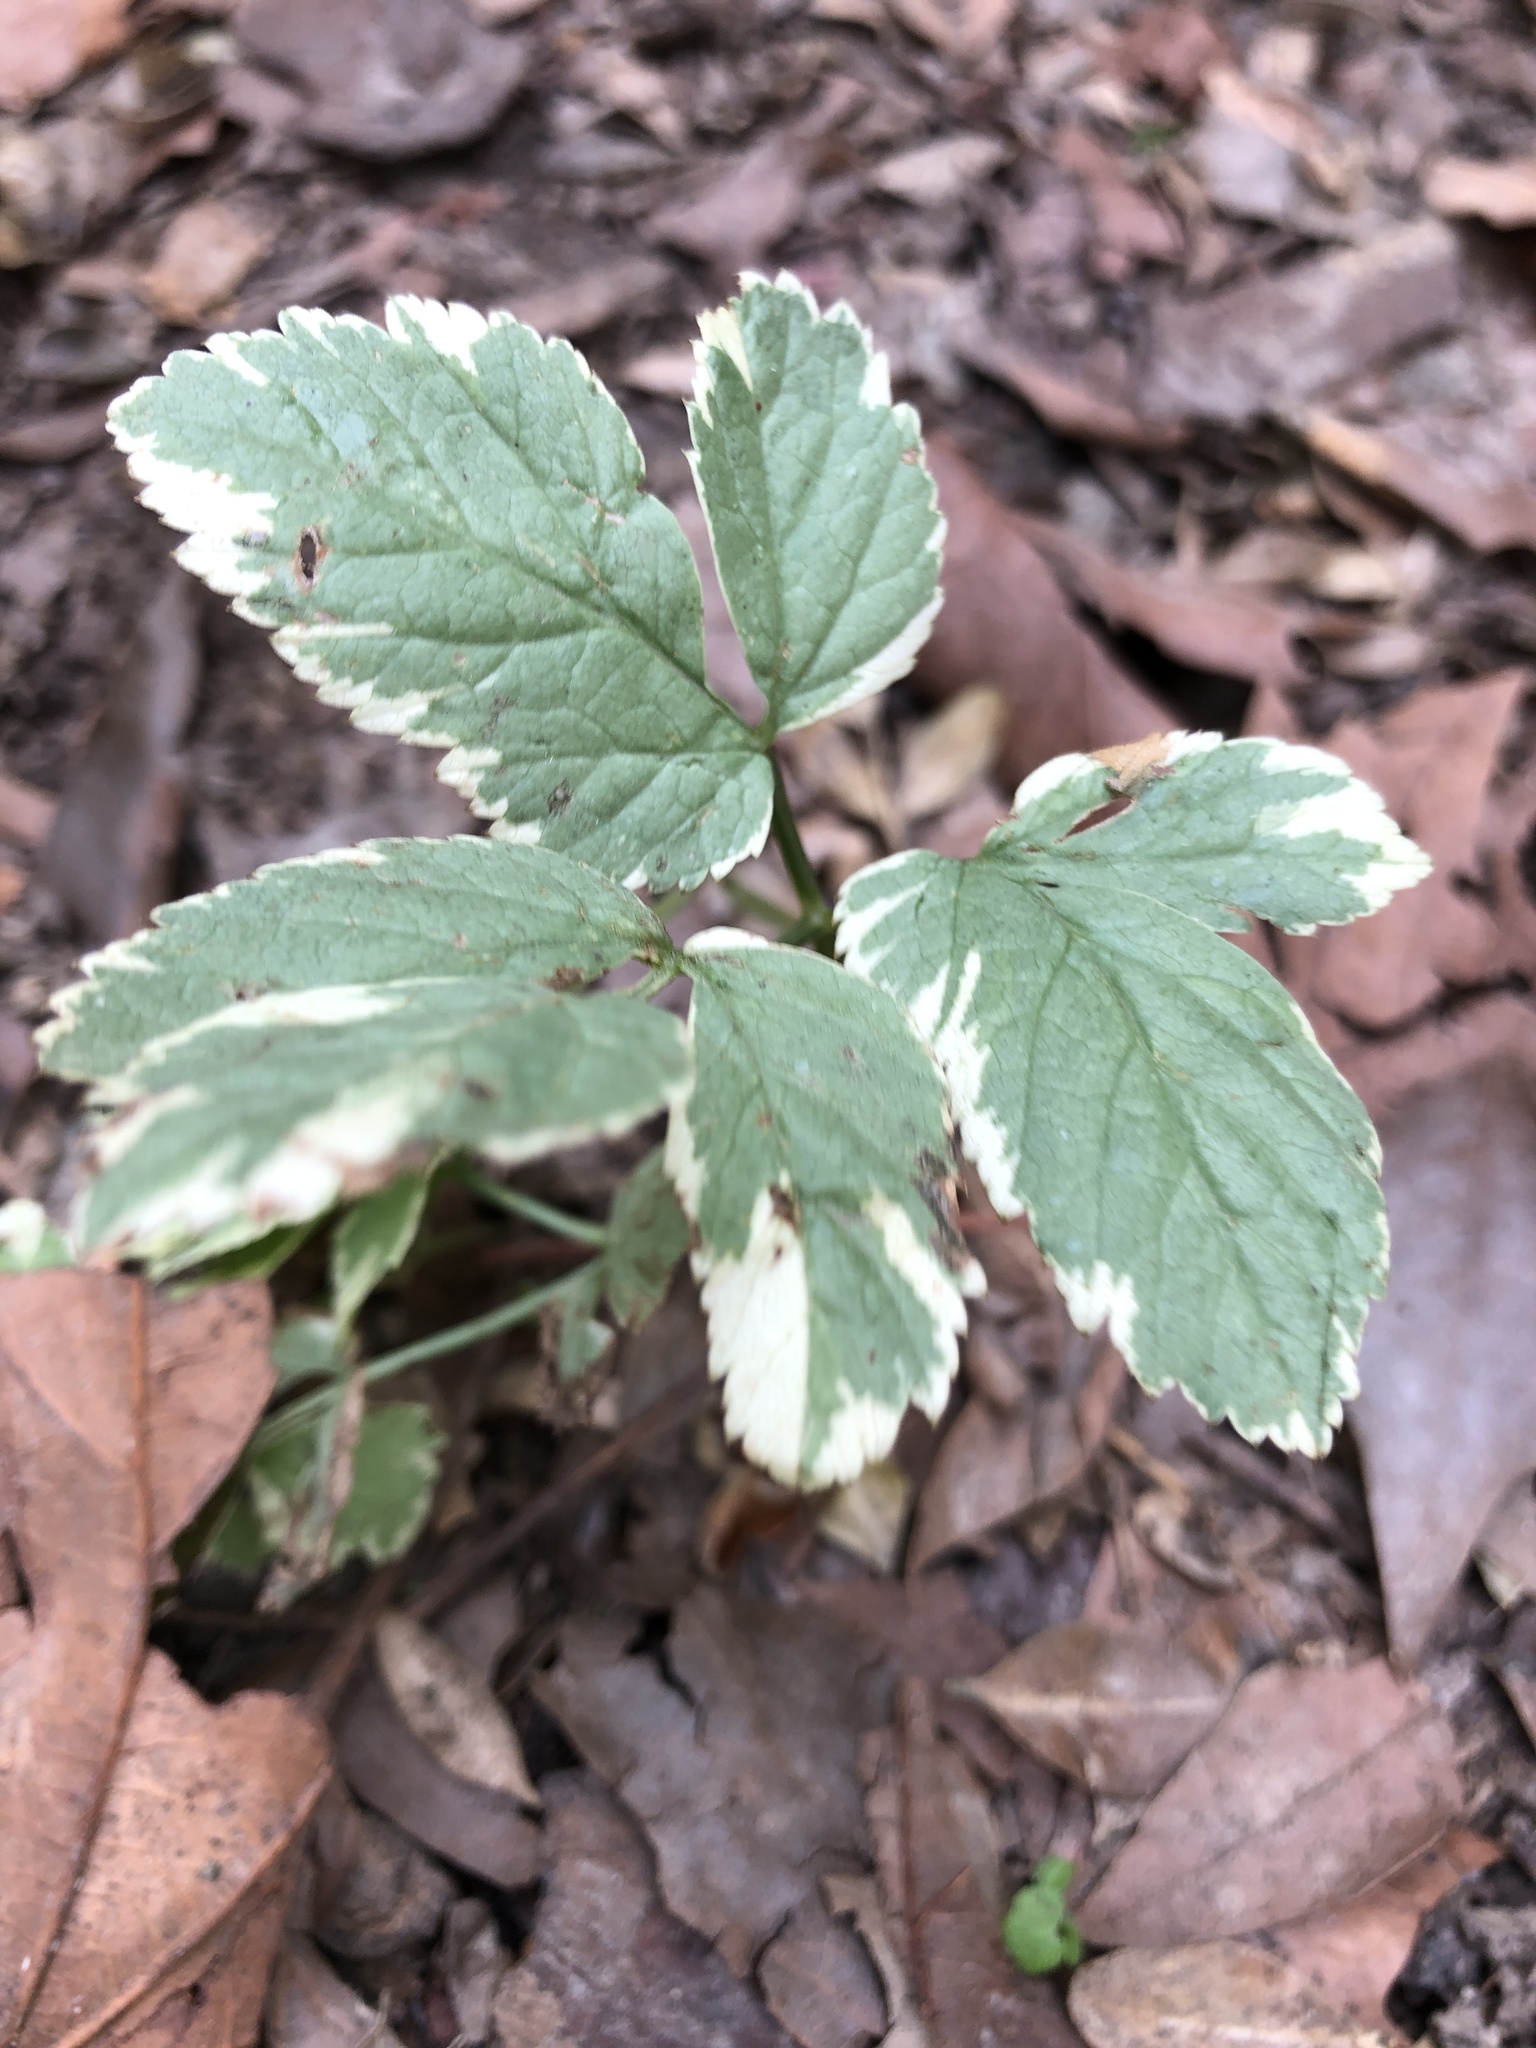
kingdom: Plantae
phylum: Tracheophyta
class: Magnoliopsida
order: Apiales
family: Apiaceae
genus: Aegopodium
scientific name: Aegopodium podagraria
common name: Ground-elder
